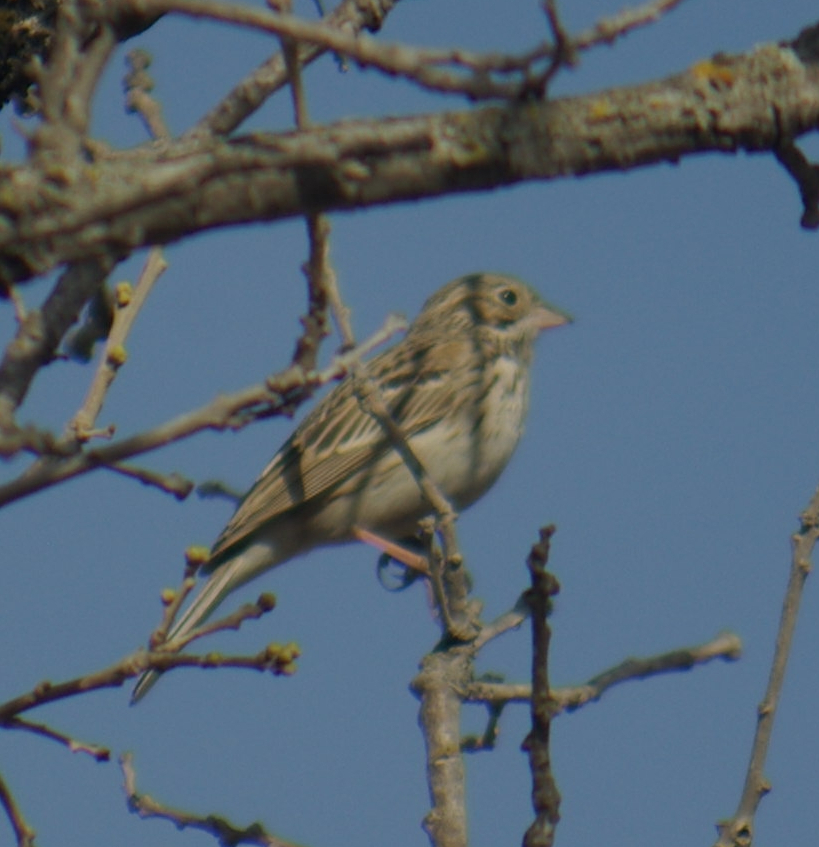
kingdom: Animalia
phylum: Chordata
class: Aves
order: Passeriformes
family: Passerellidae
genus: Pooecetes
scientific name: Pooecetes gramineus
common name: Vesper sparrow
